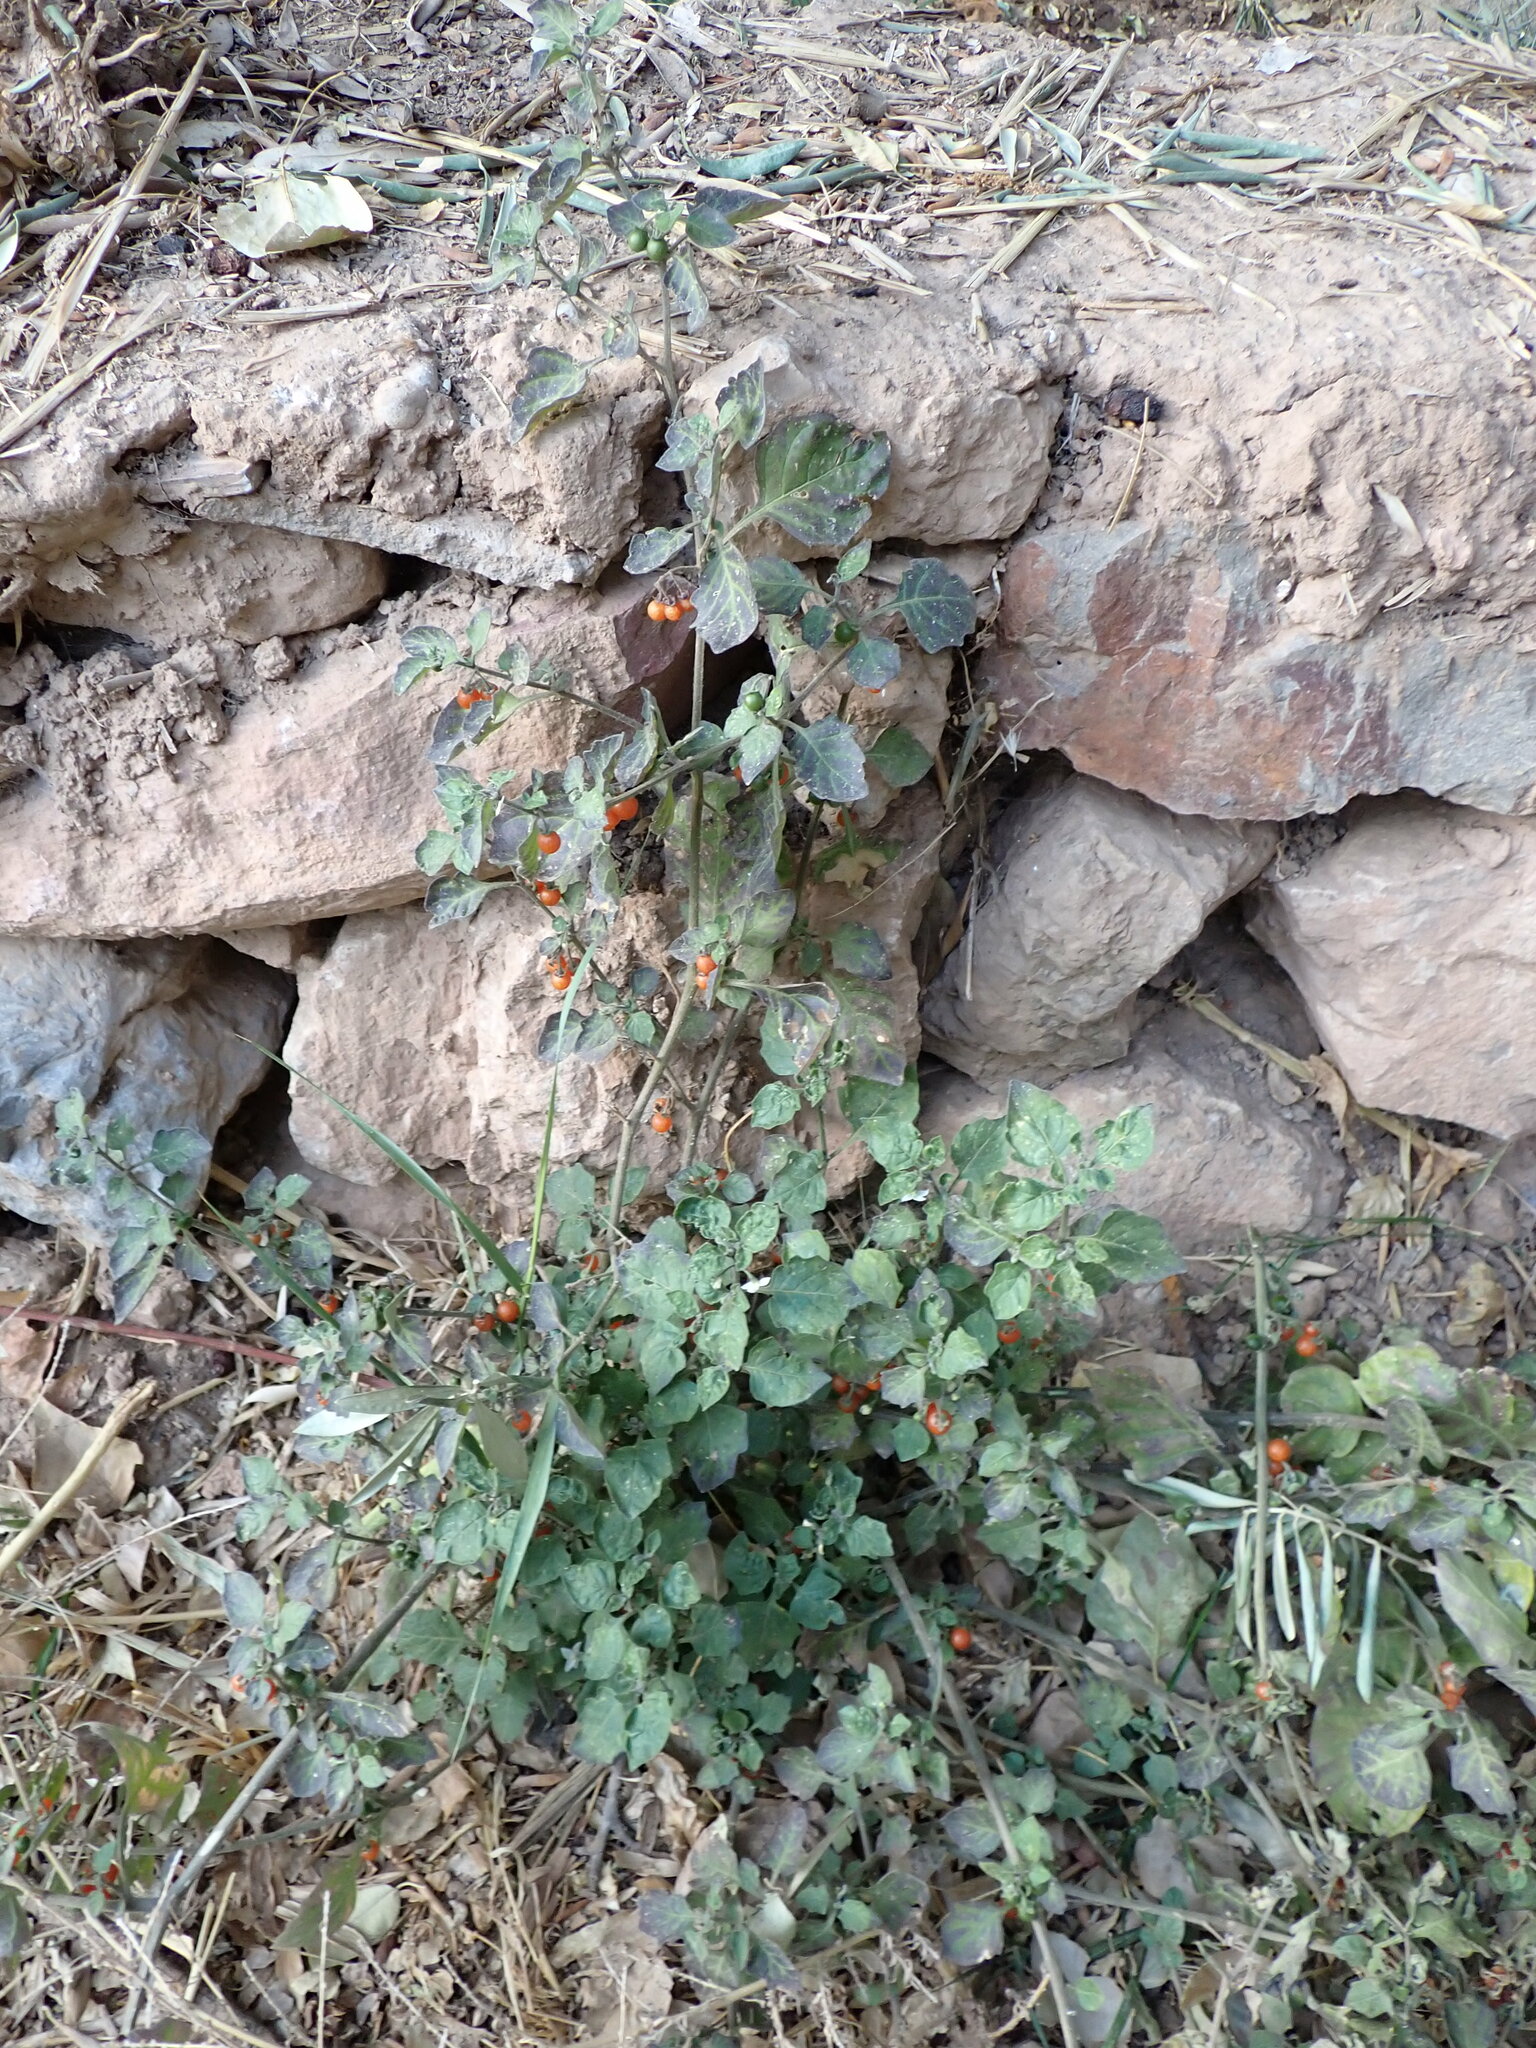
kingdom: Plantae
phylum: Tracheophyta
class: Magnoliopsida
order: Solanales
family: Solanaceae
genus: Solanum
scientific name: Solanum villosum
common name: Red nightshade
